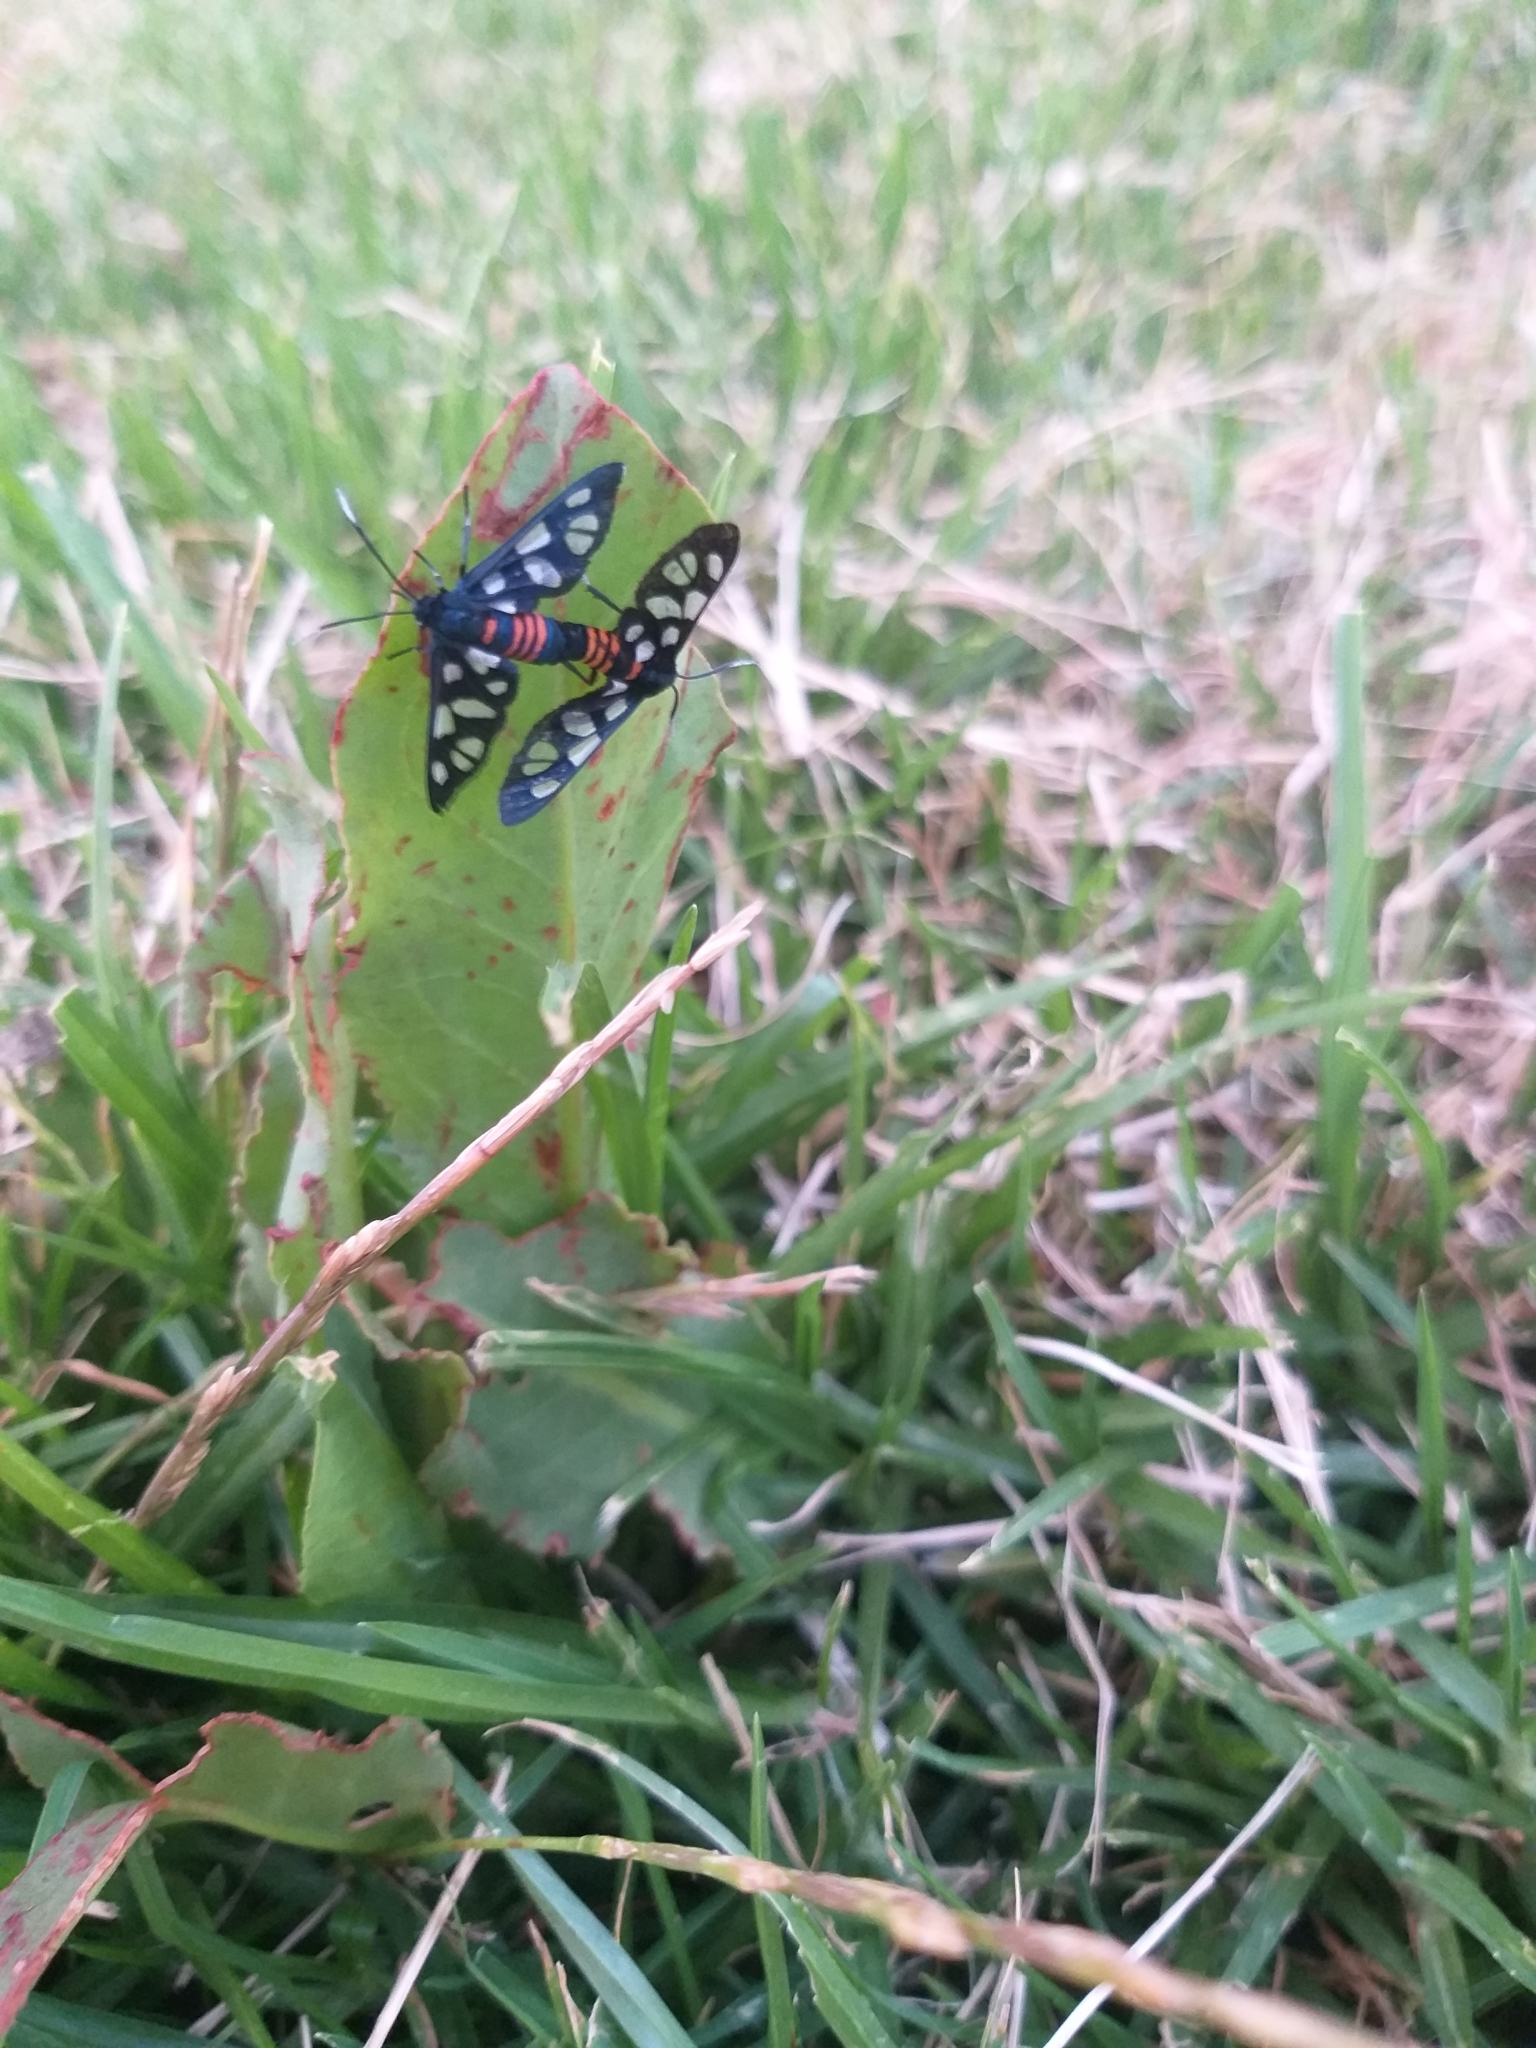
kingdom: Animalia
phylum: Arthropoda
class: Insecta
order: Lepidoptera
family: Erebidae
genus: Amata
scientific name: Amata cerbera
